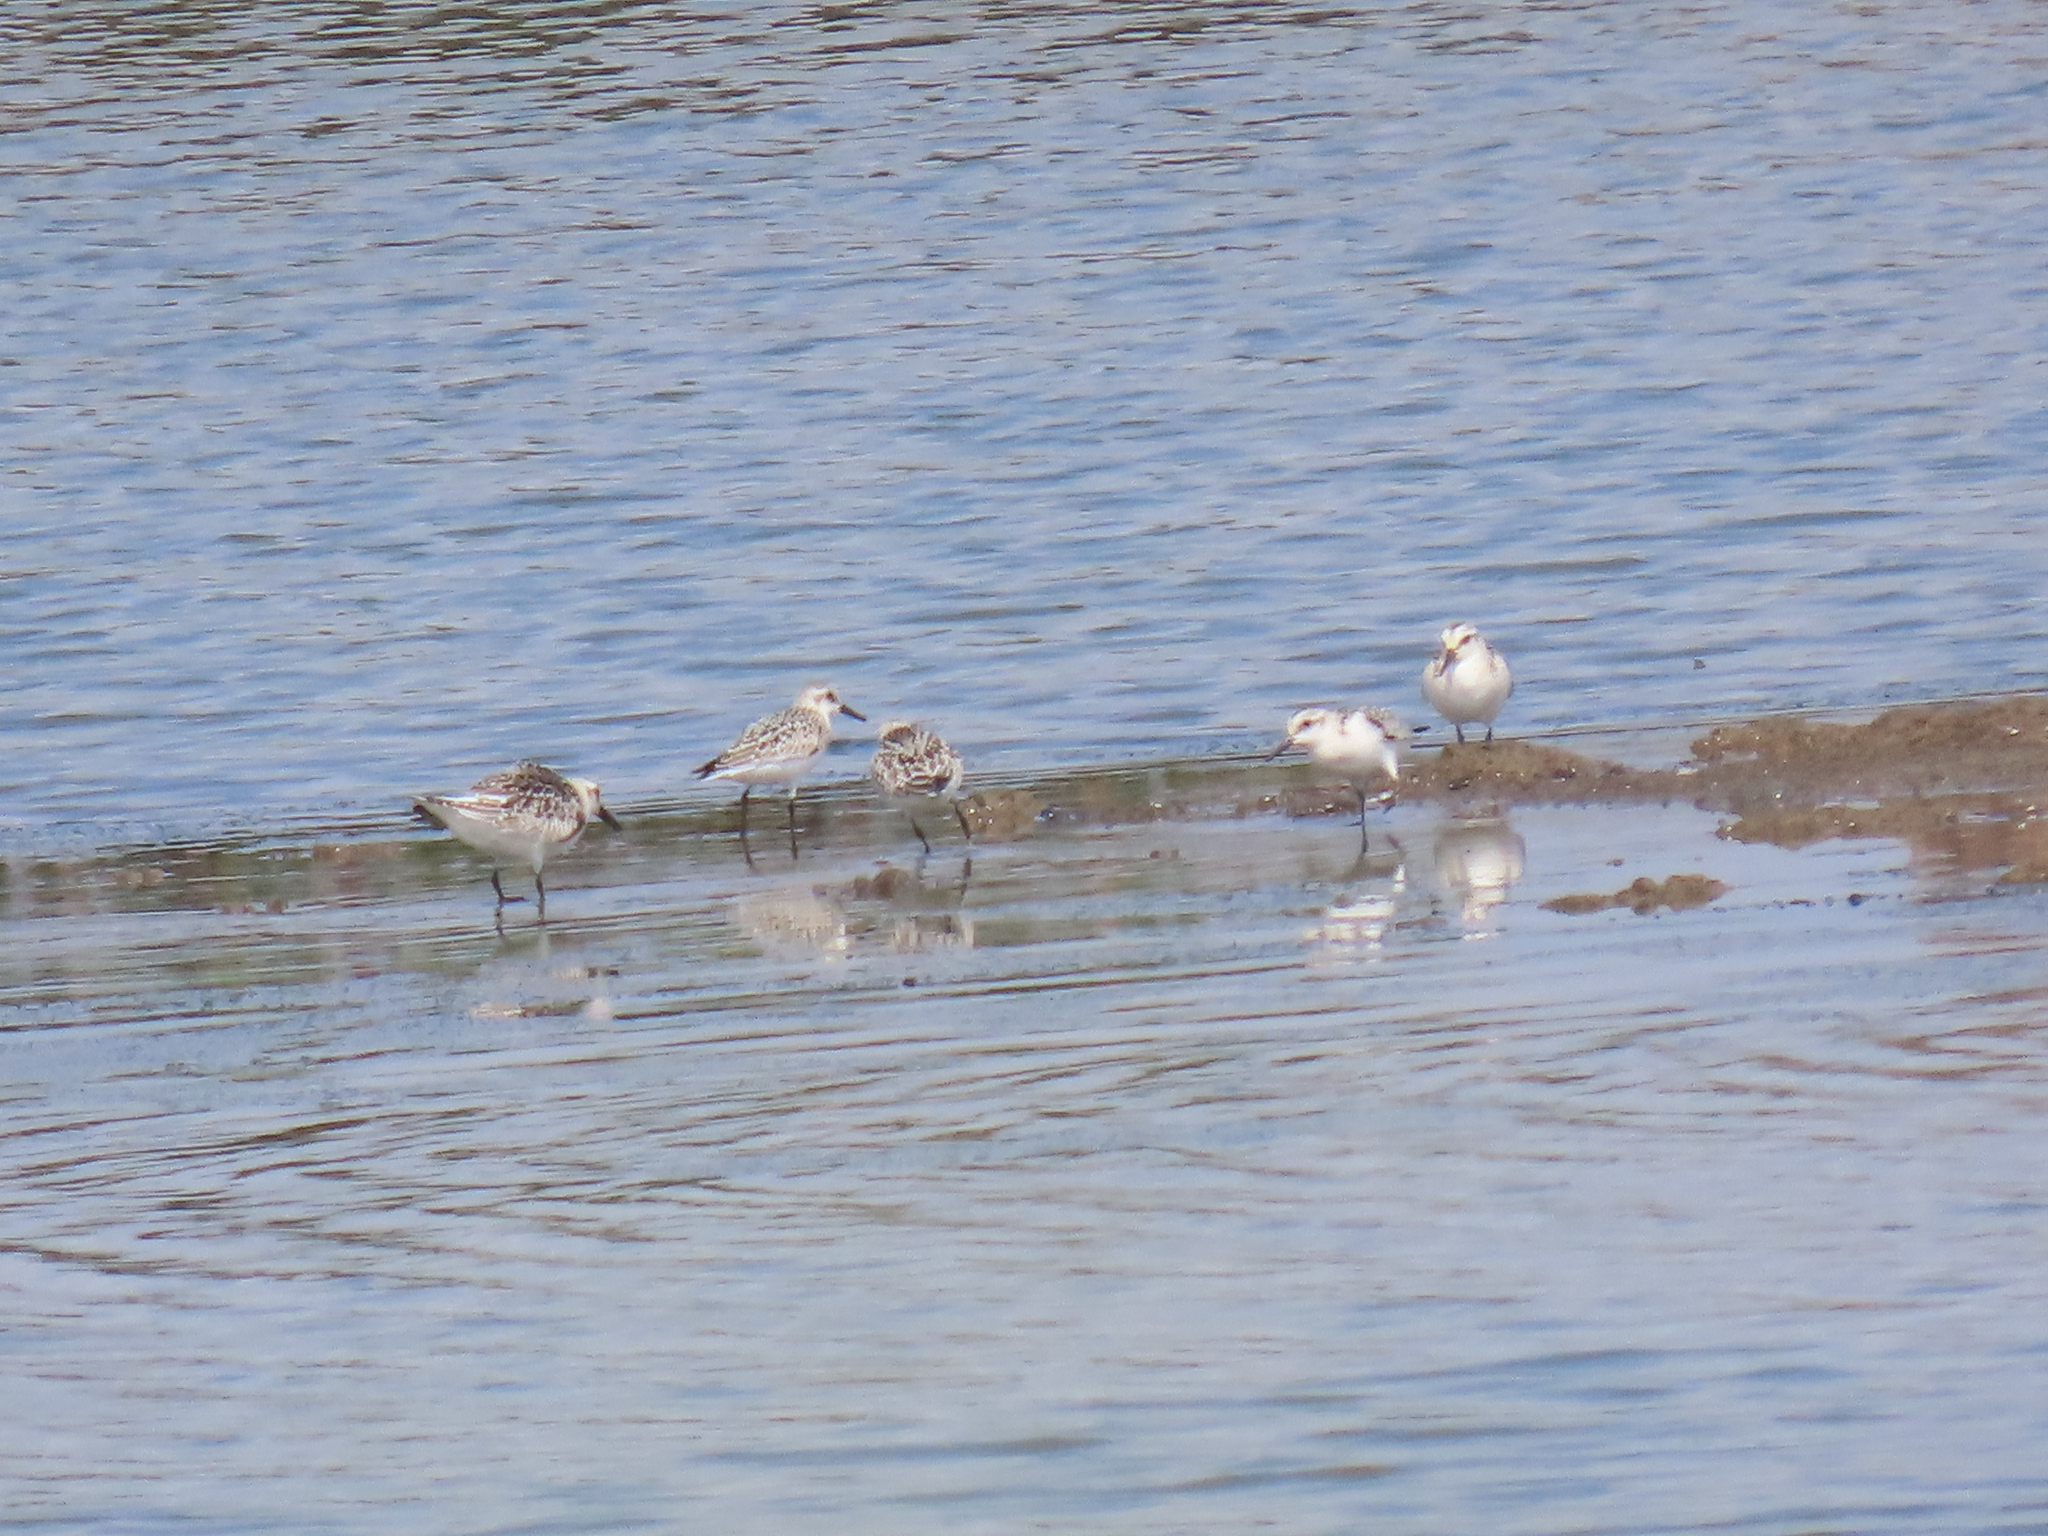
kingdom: Animalia
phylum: Chordata
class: Aves
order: Charadriiformes
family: Scolopacidae
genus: Calidris
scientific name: Calidris alba
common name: Sanderling
